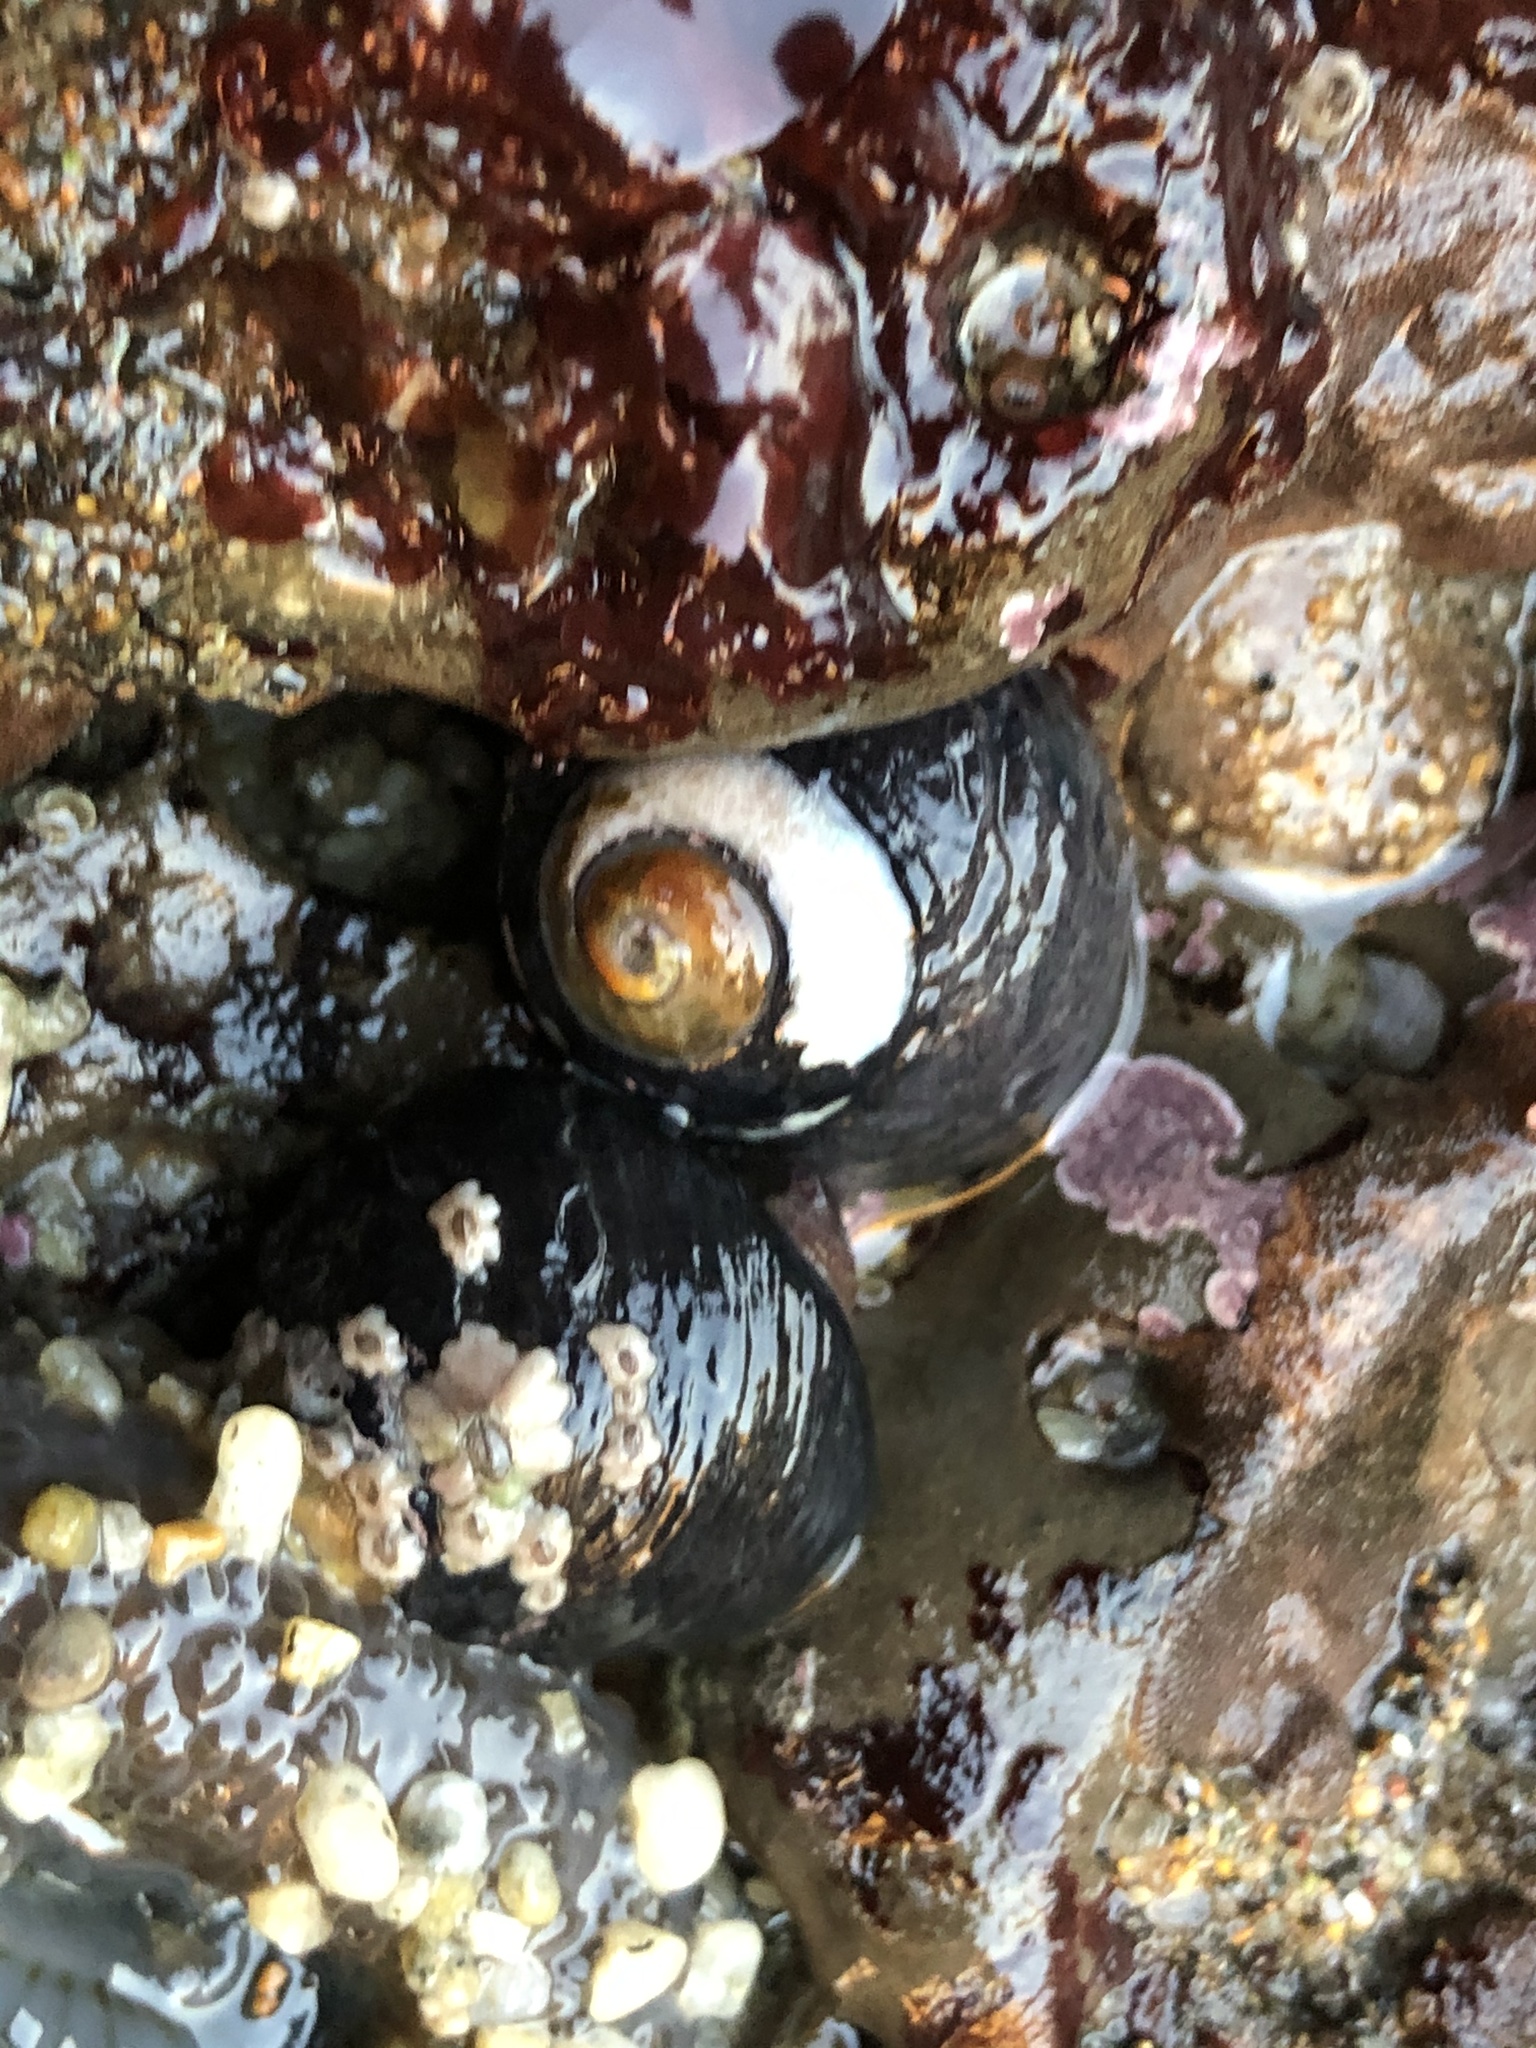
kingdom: Animalia
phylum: Mollusca
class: Gastropoda
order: Trochida
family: Tegulidae
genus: Tegula
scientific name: Tegula funebralis
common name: Black tegula
